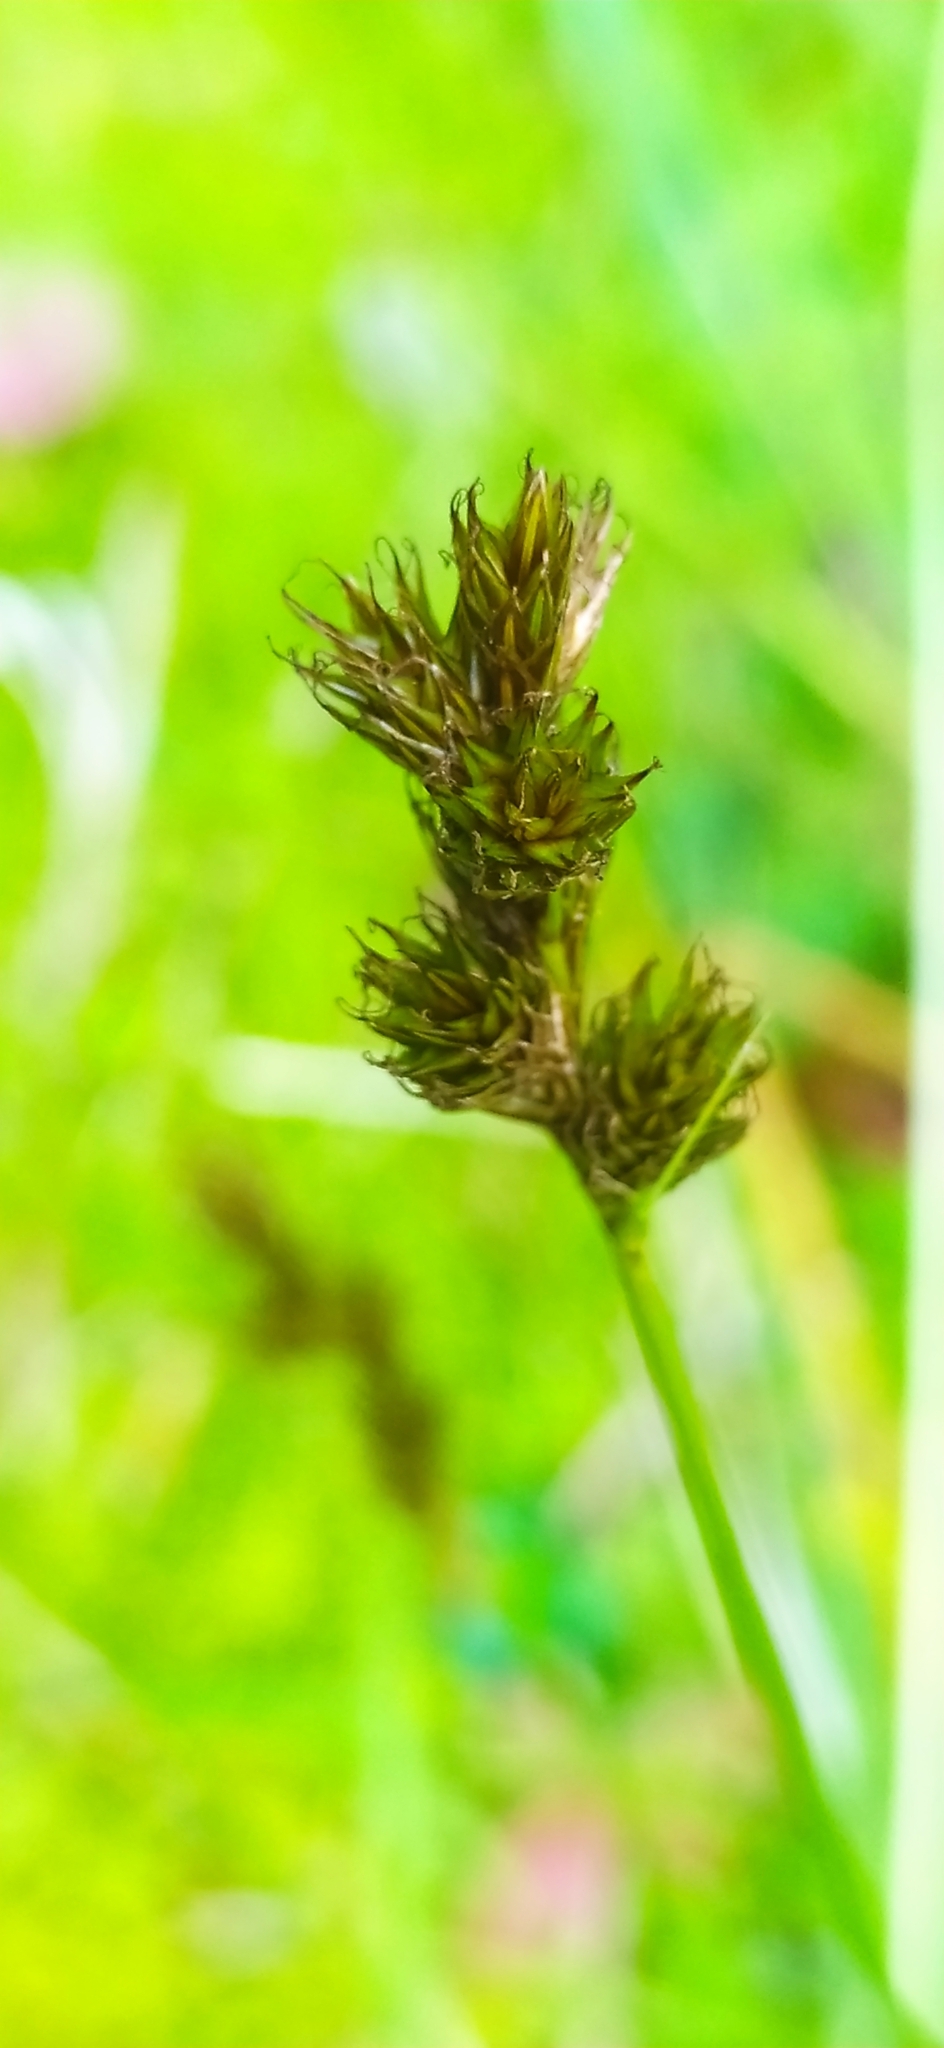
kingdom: Plantae
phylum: Tracheophyta
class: Liliopsida
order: Poales
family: Cyperaceae
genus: Carex
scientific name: Carex leporina
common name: Oval sedge
